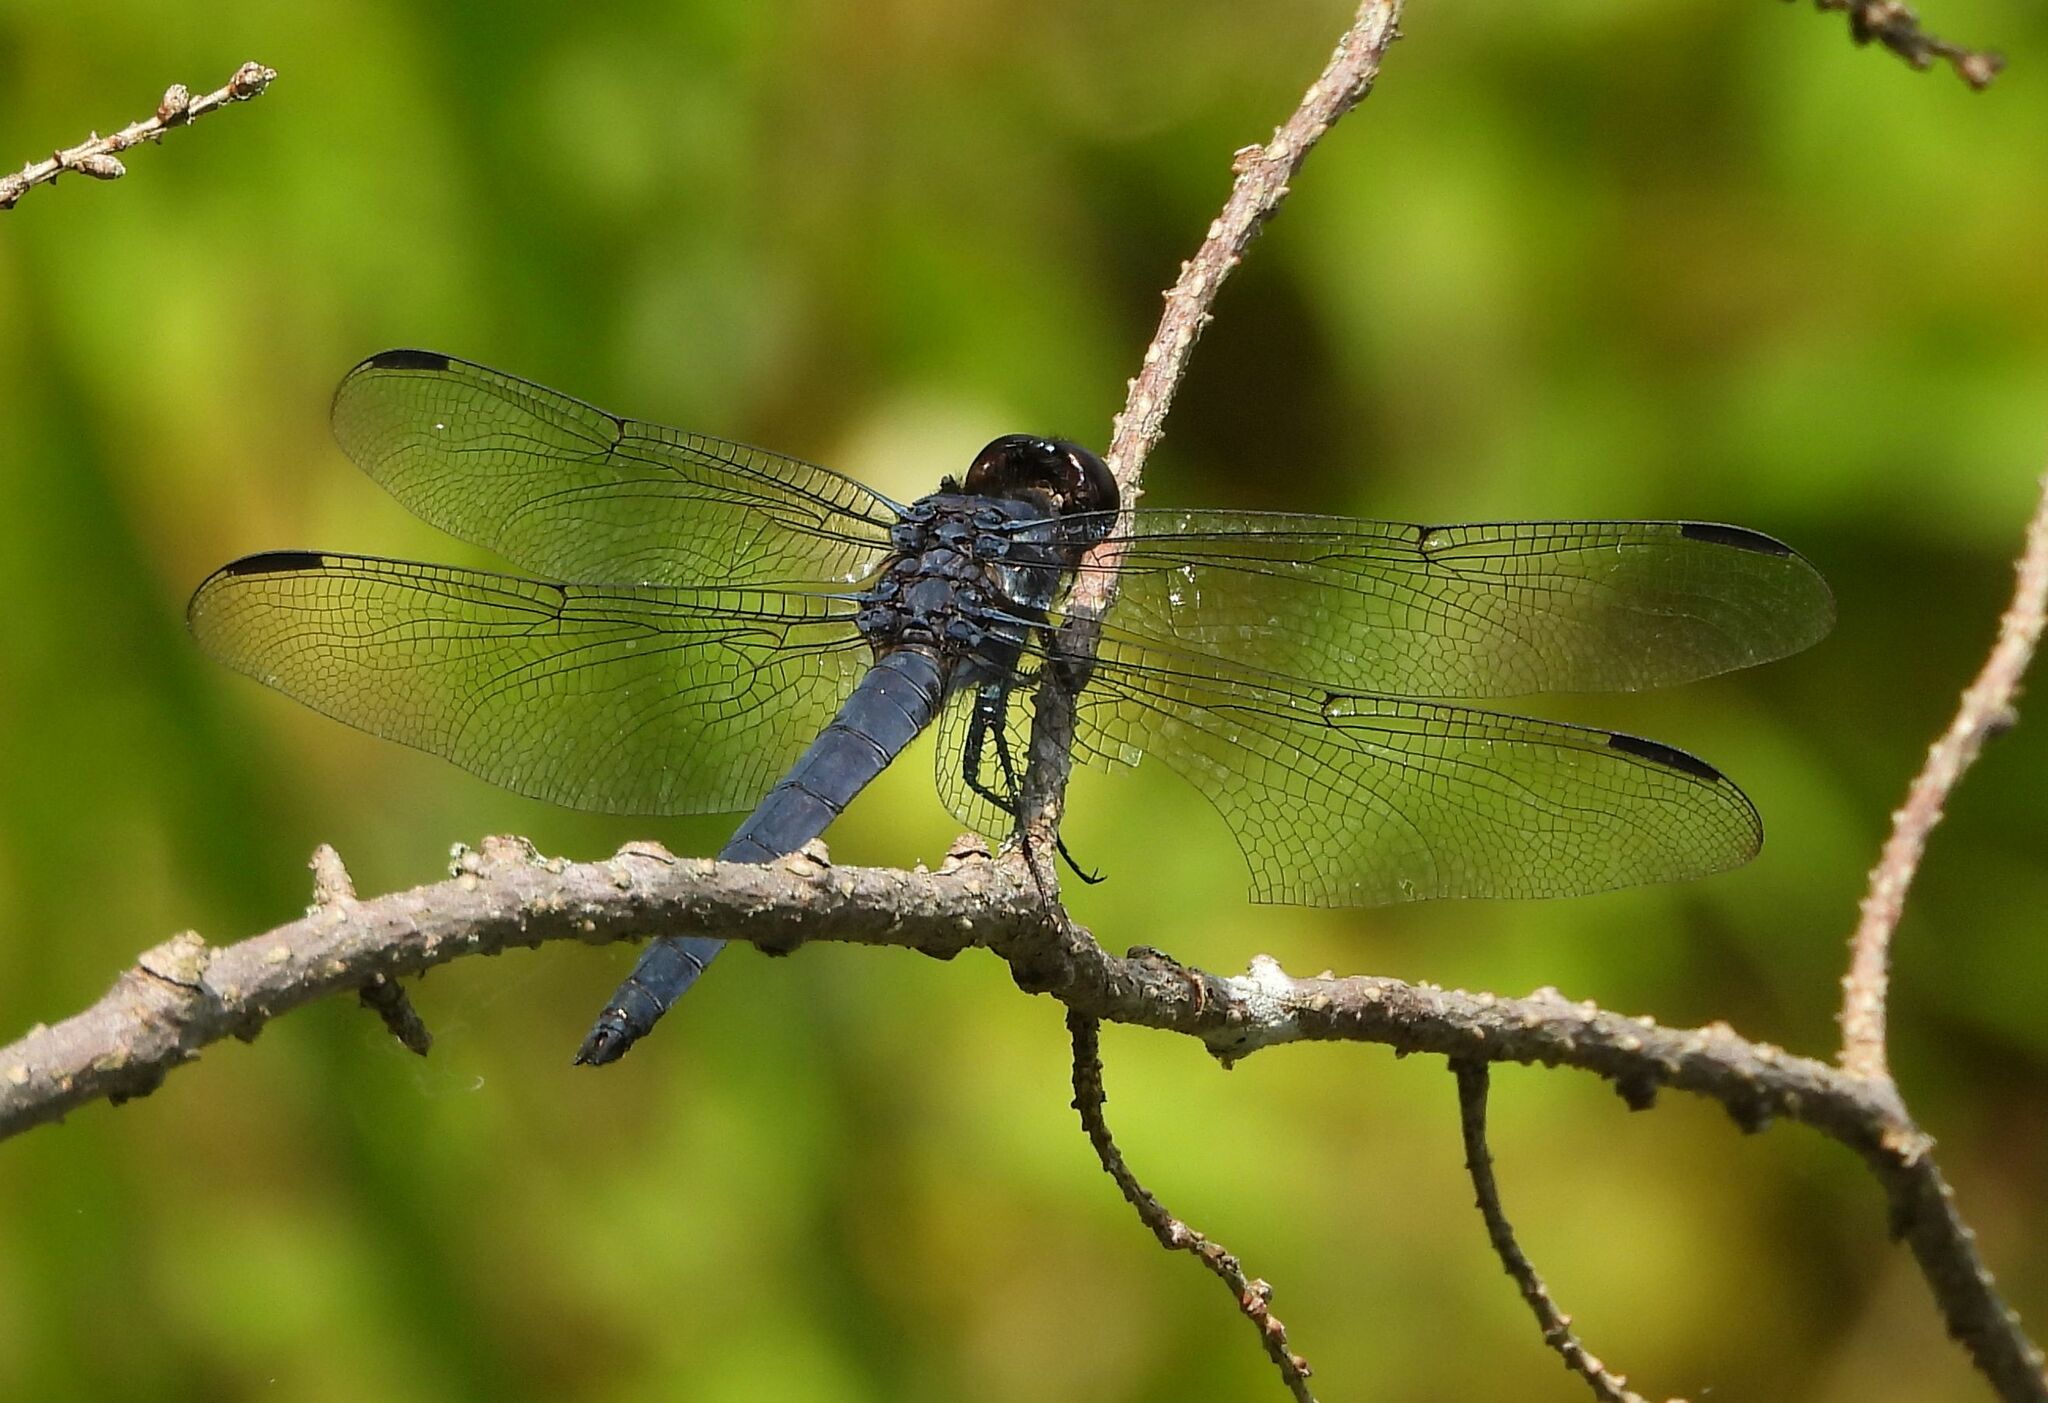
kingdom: Animalia
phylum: Arthropoda
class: Insecta
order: Odonata
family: Libellulidae
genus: Libellula
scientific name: Libellula incesta
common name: Slaty skimmer
